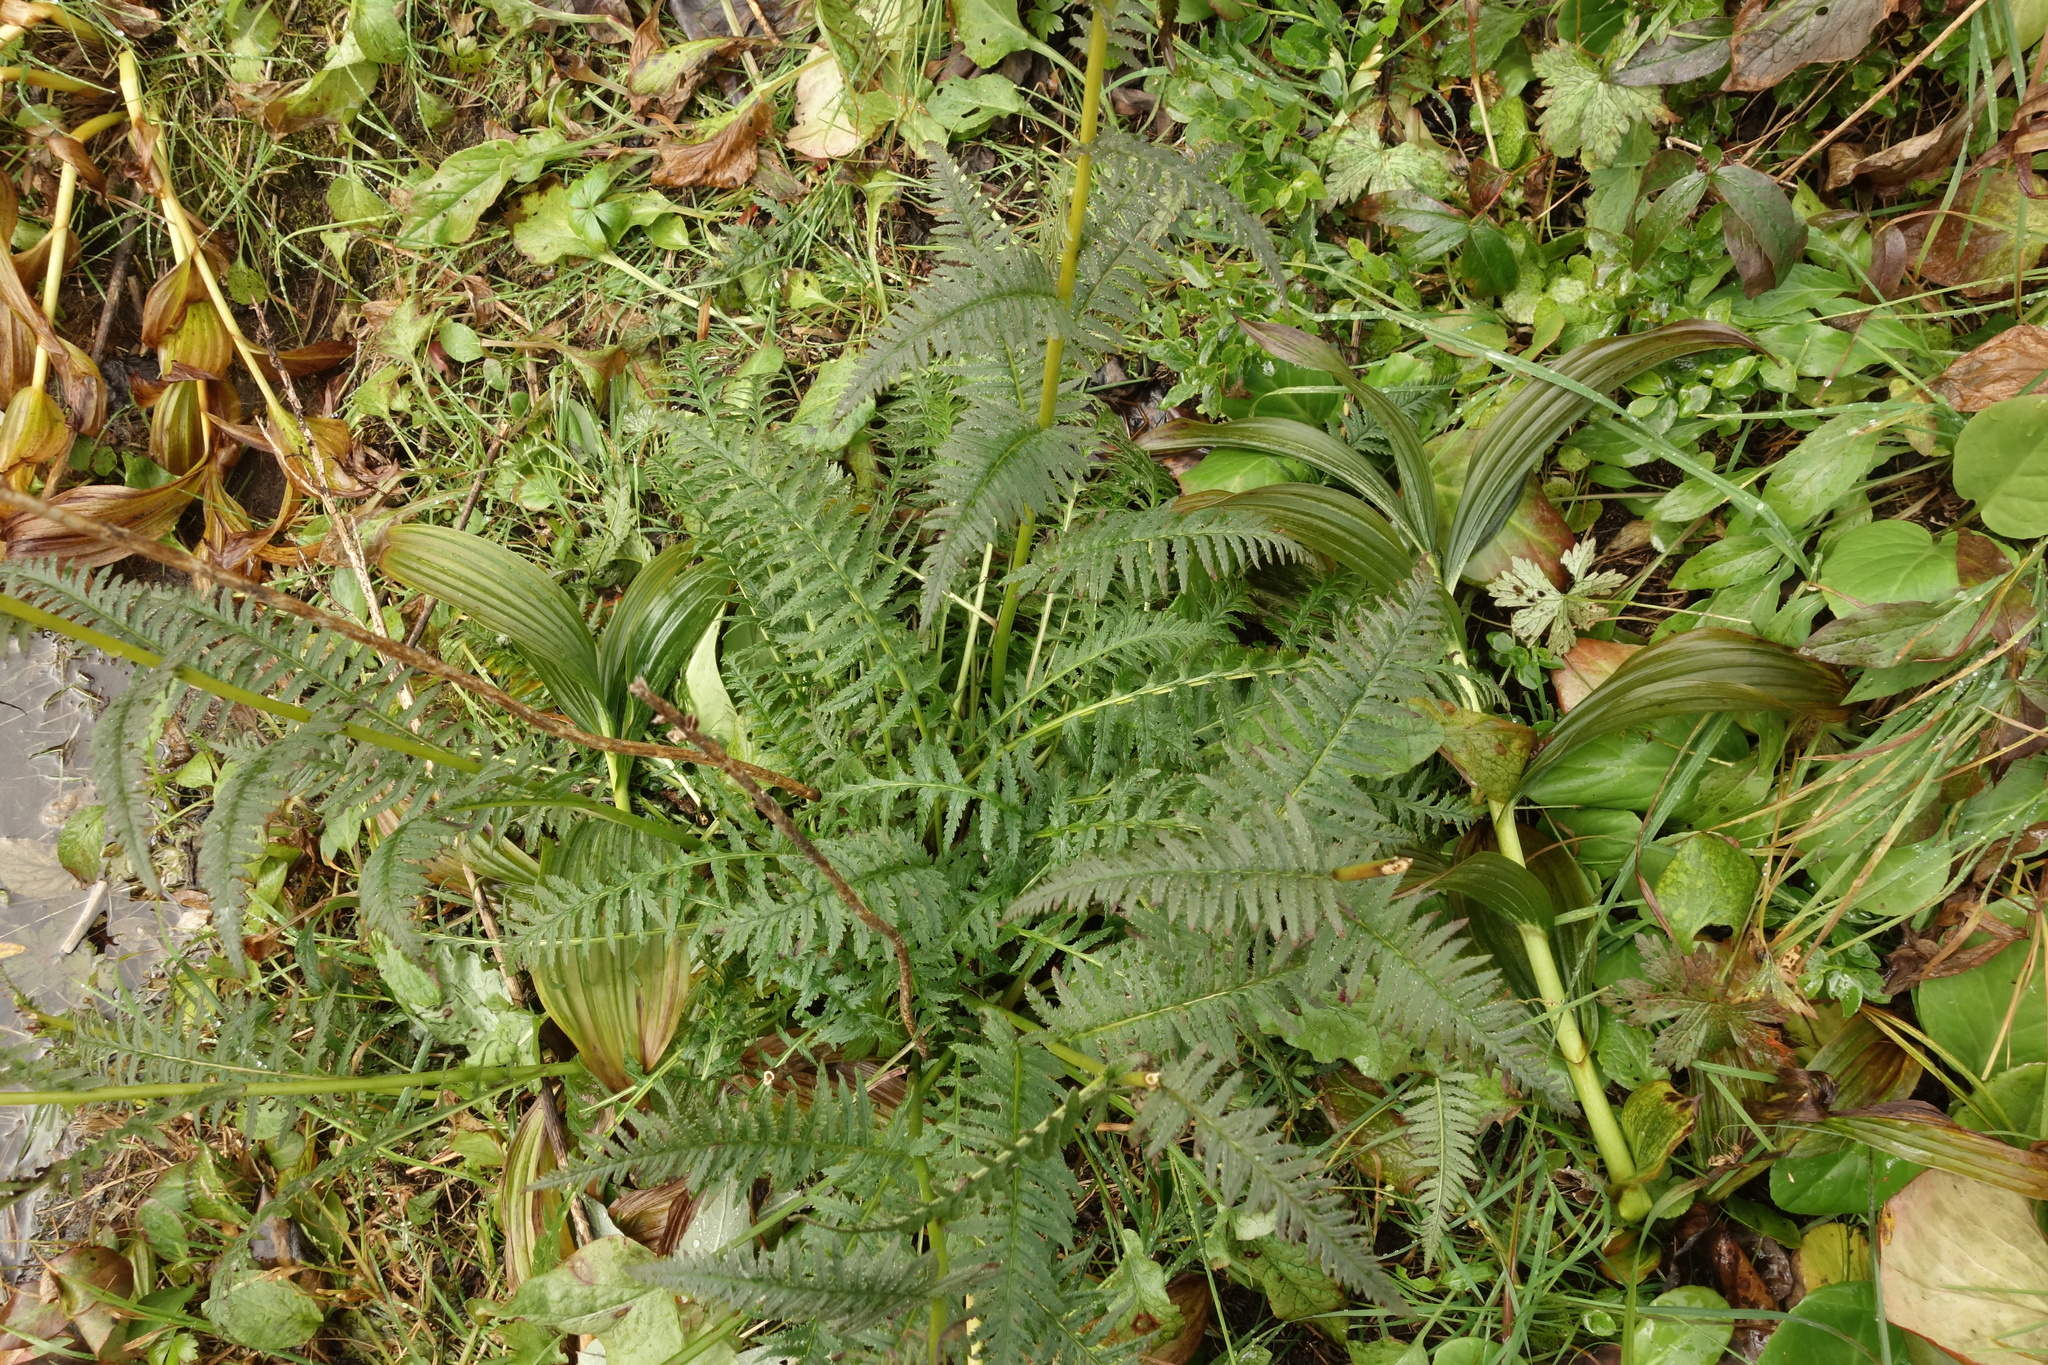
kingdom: Plantae
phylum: Tracheophyta
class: Magnoliopsida
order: Lamiales
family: Orobanchaceae
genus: Pedicularis
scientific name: Pedicularis incarnata
